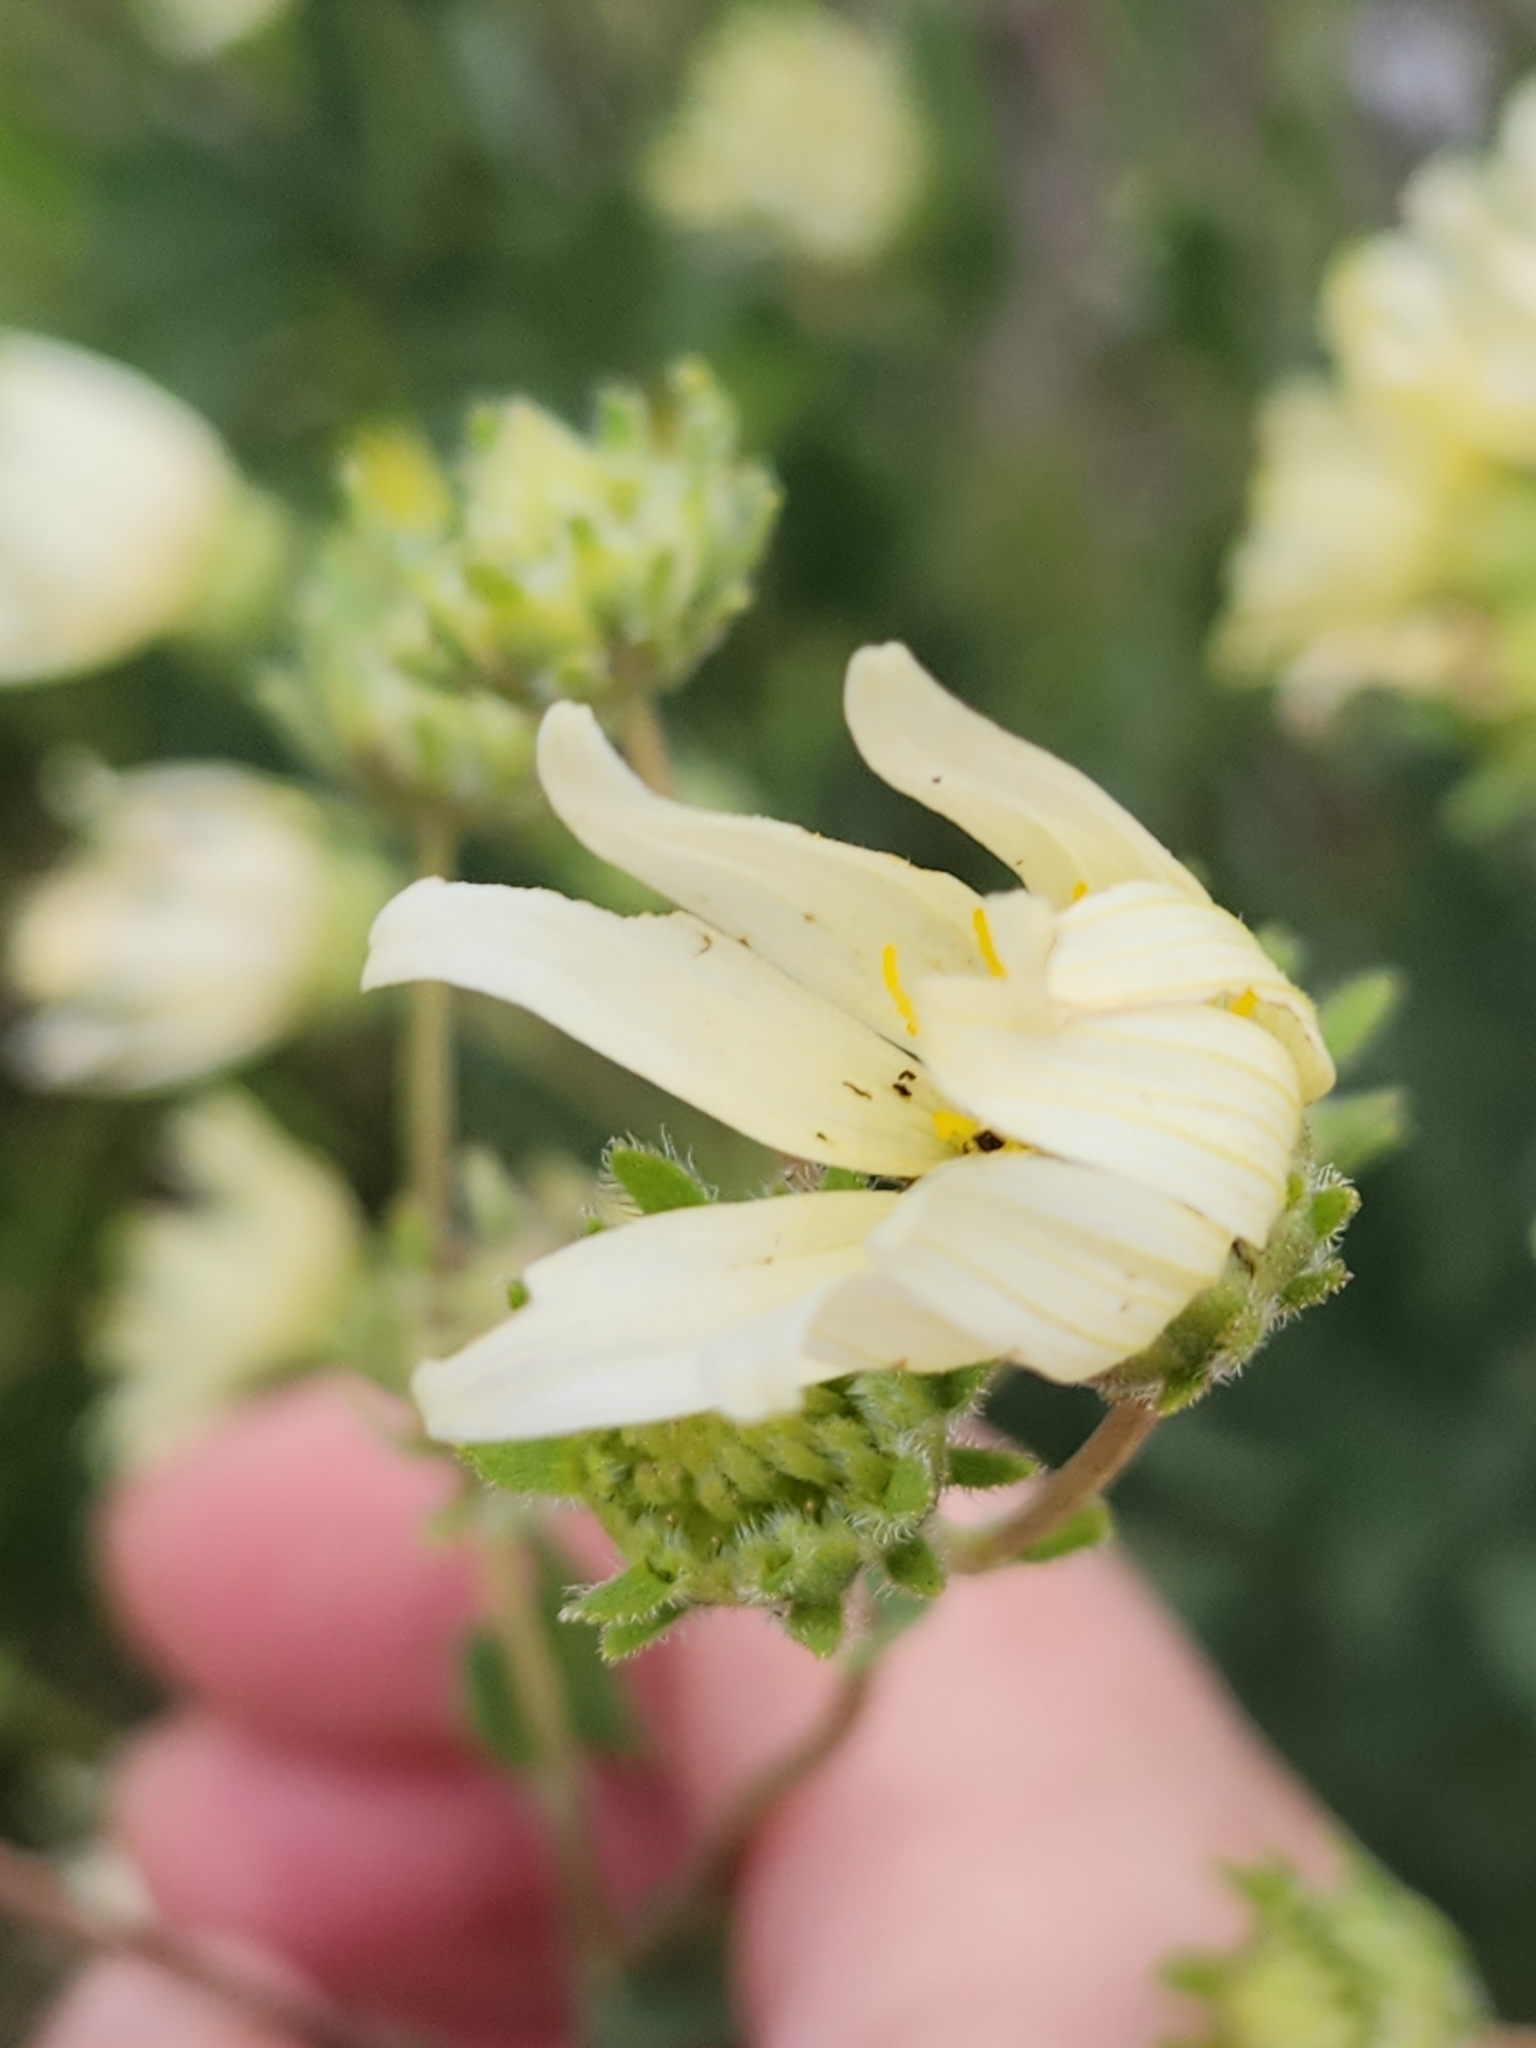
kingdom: Plantae
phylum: Tracheophyta
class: Magnoliopsida
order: Asterales
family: Asteraceae
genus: Engelmannia
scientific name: Engelmannia peristenia
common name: Engelmann's daisy
